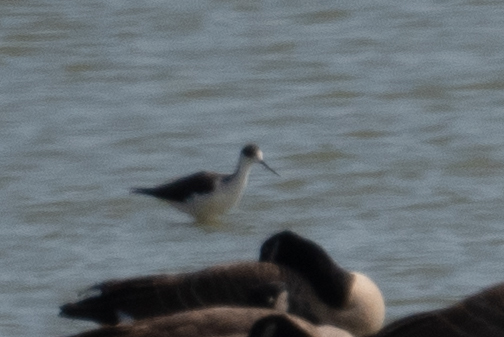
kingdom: Animalia
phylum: Chordata
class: Aves
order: Charadriiformes
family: Recurvirostridae
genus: Himantopus
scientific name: Himantopus mexicanus
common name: Black-necked stilt
